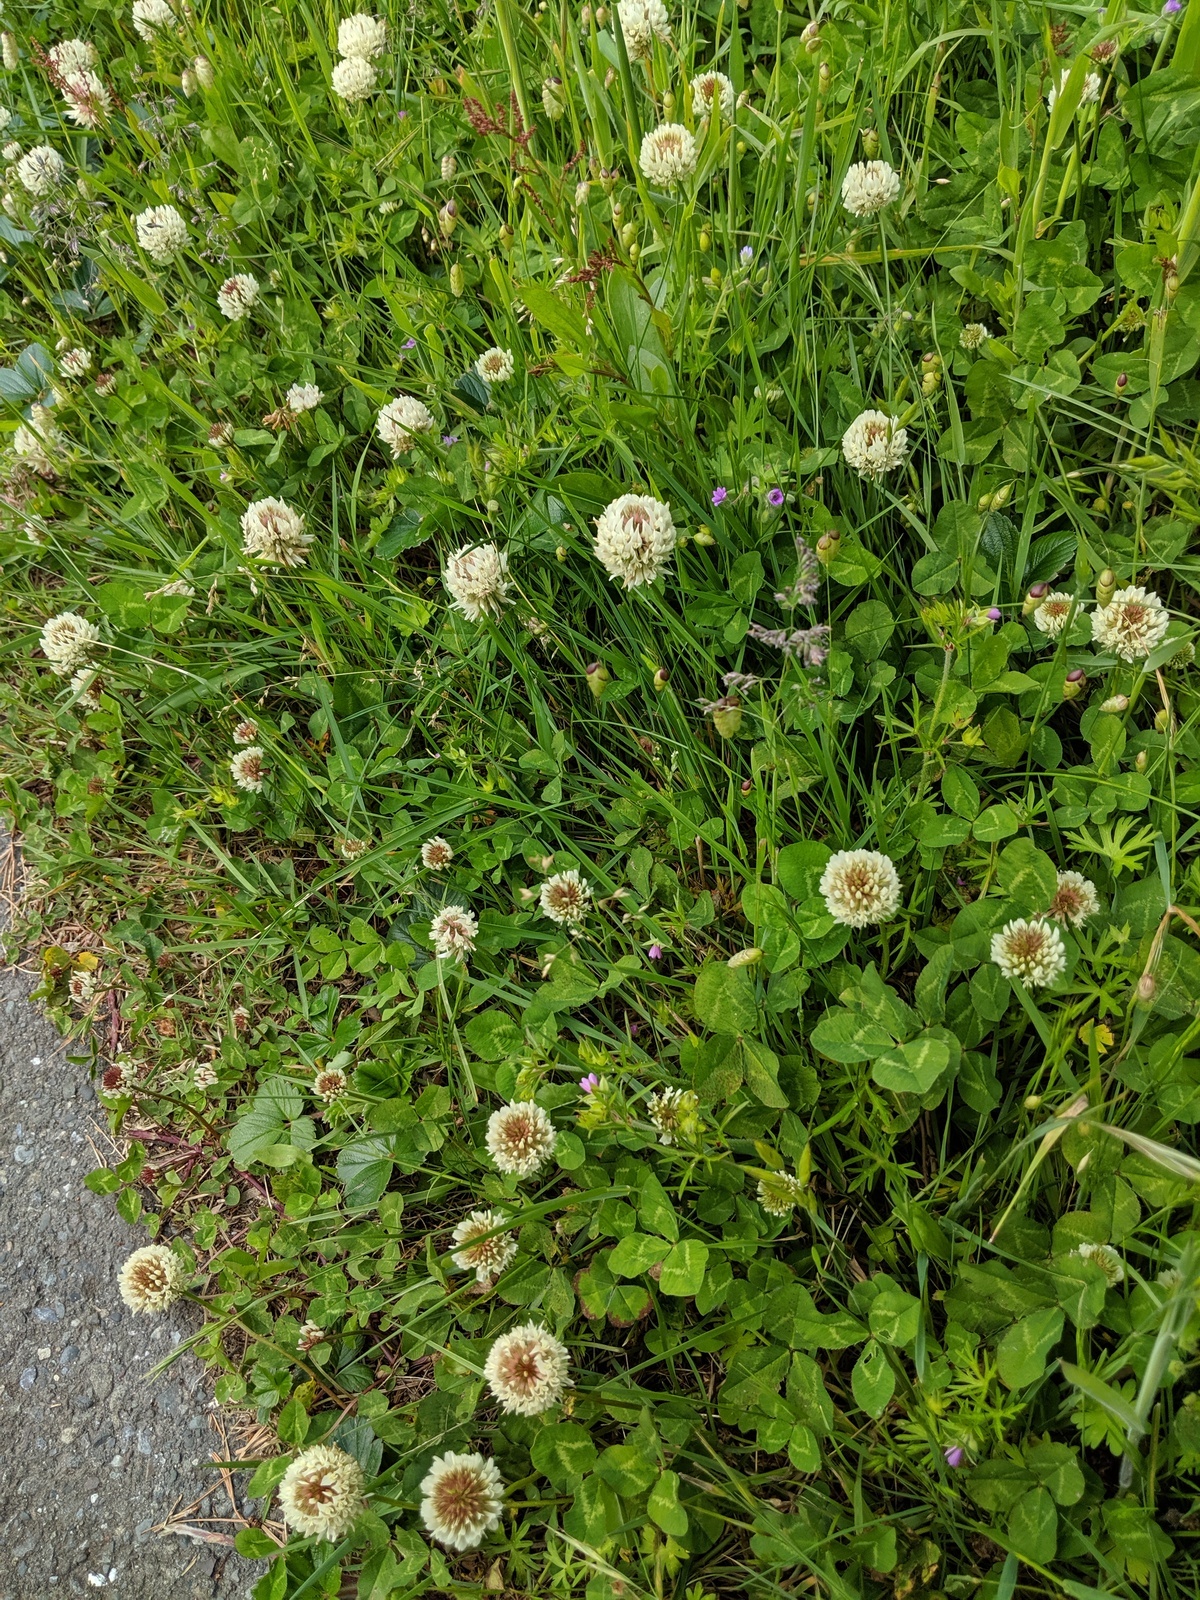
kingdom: Plantae
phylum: Tracheophyta
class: Magnoliopsida
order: Fabales
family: Fabaceae
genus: Trifolium
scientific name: Trifolium repens
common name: White clover
